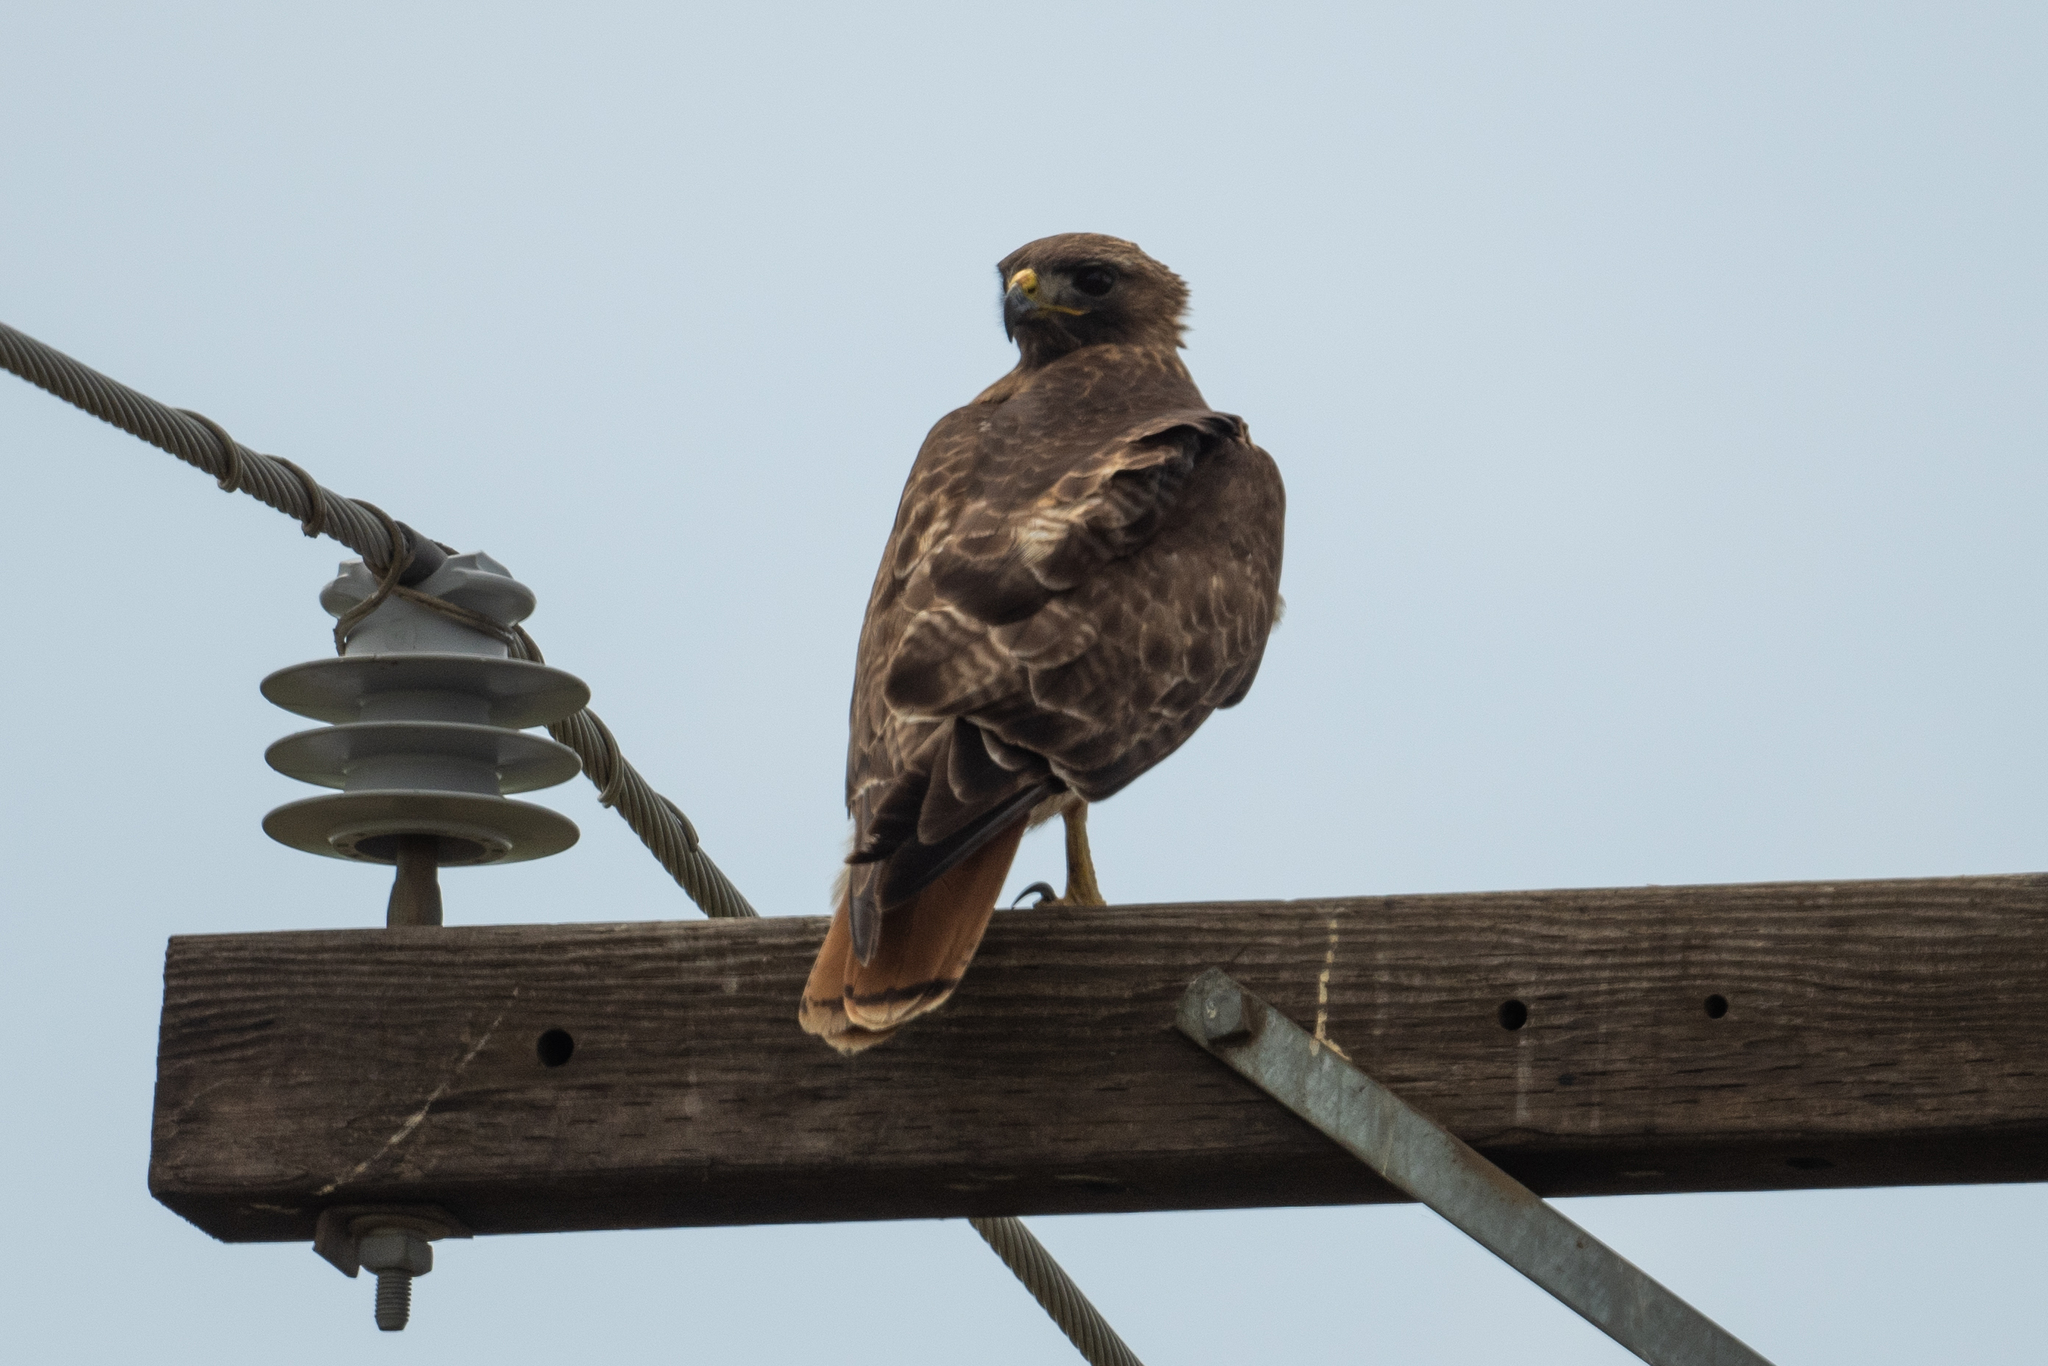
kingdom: Animalia
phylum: Chordata
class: Aves
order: Accipitriformes
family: Accipitridae
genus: Buteo
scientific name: Buteo jamaicensis
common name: Red-tailed hawk
